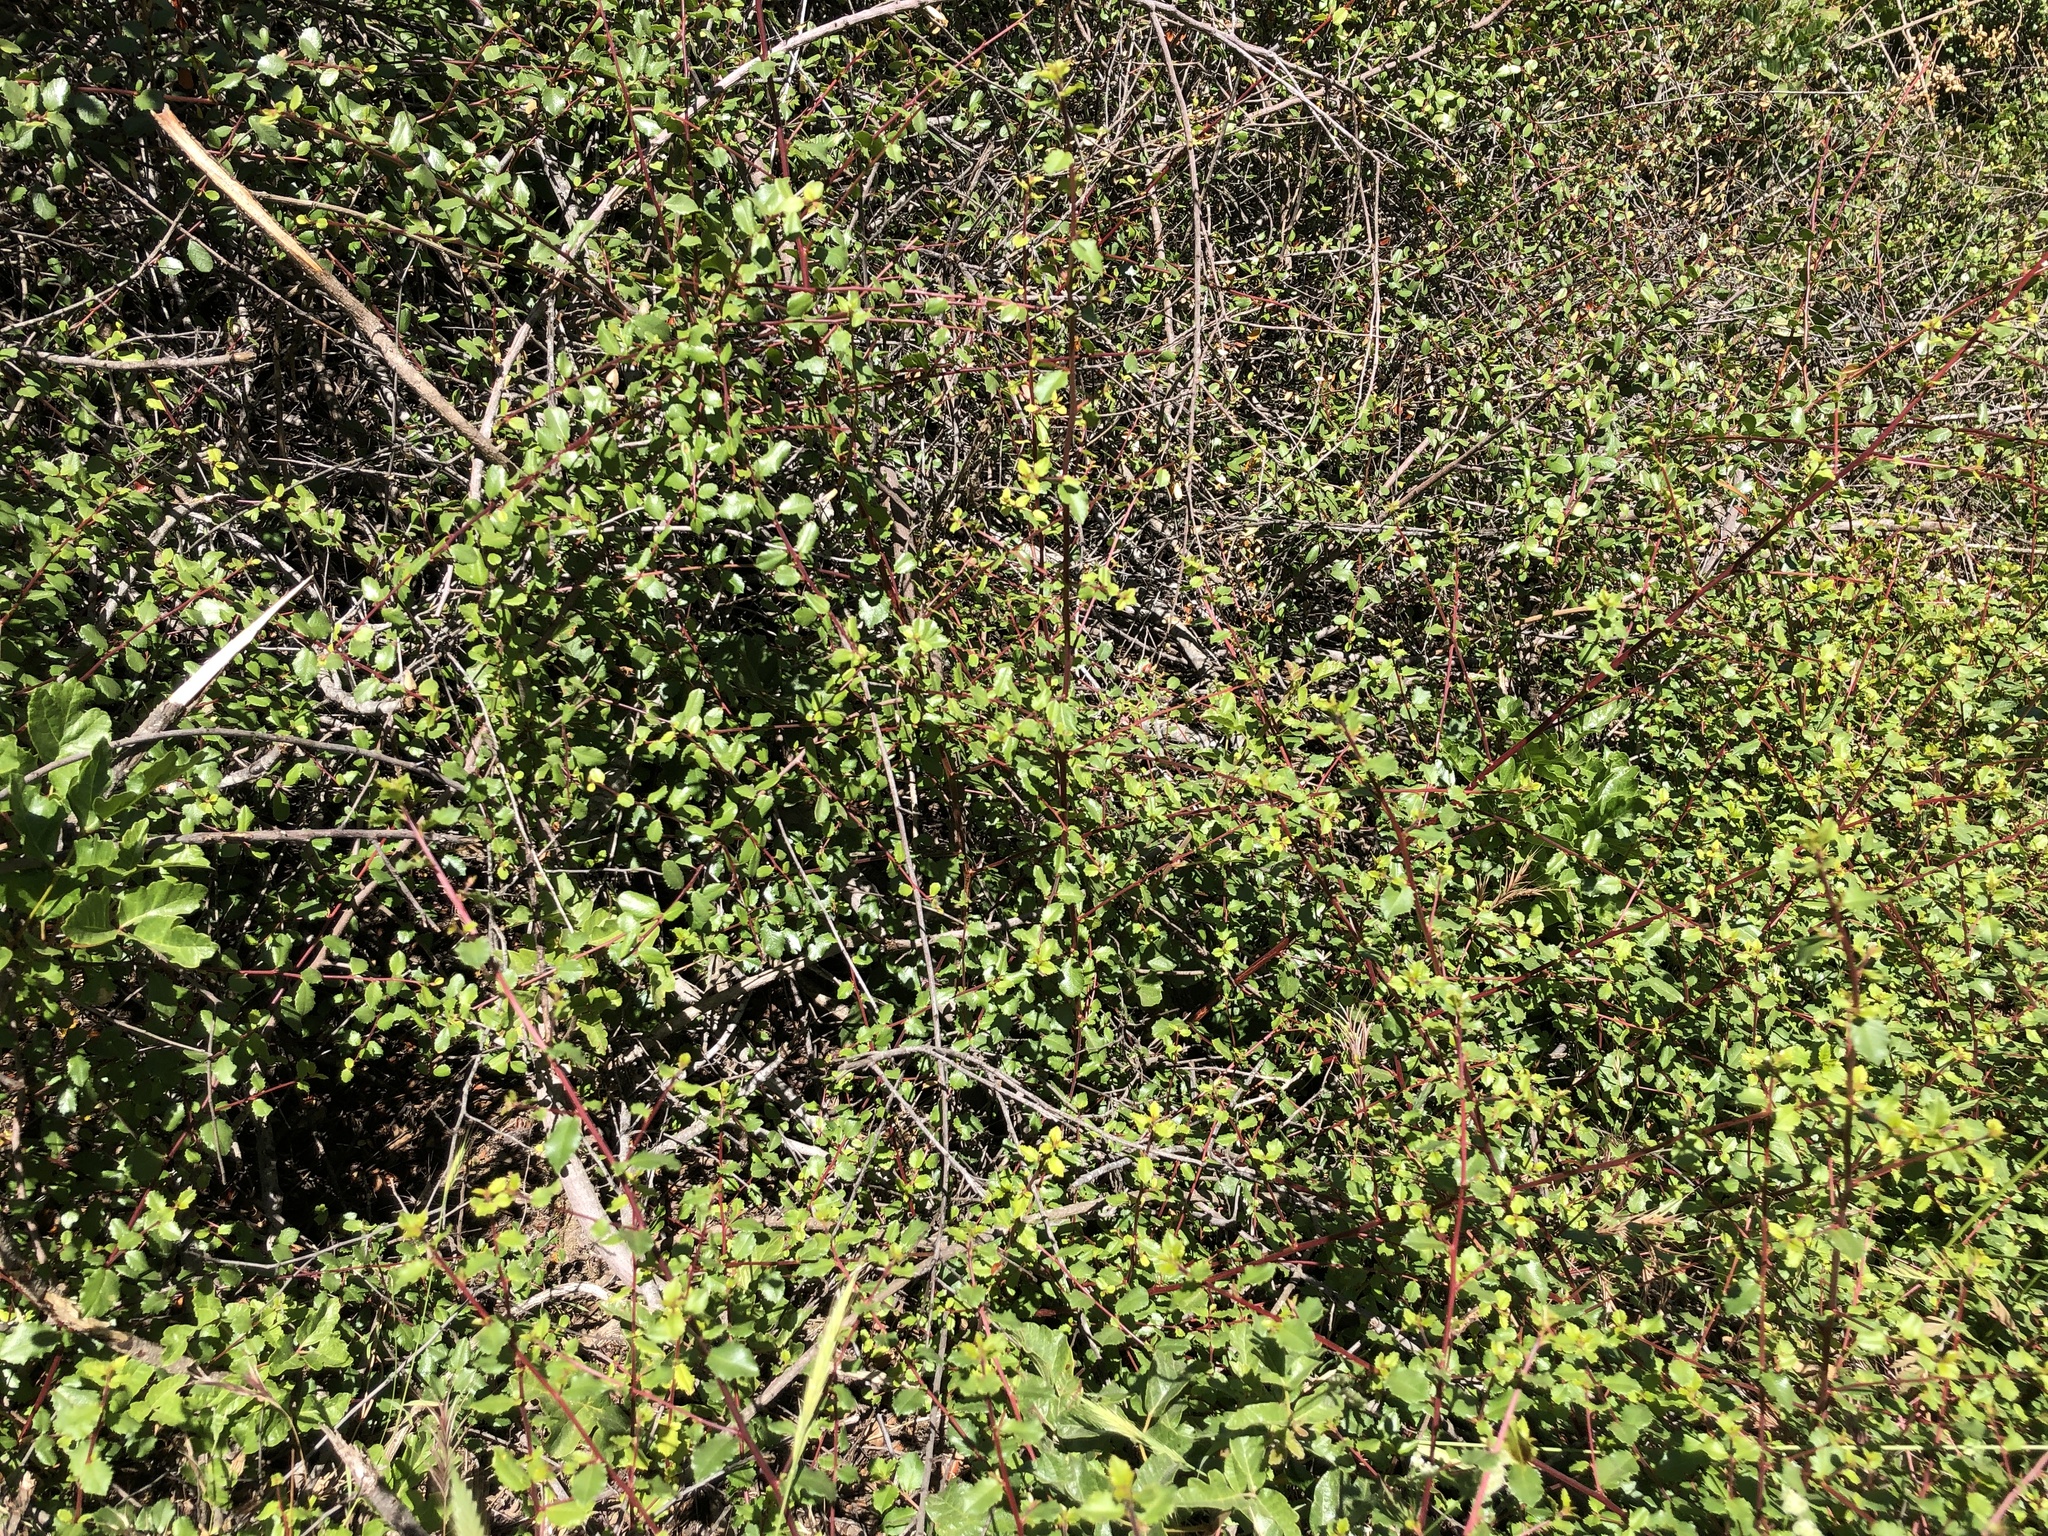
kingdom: Plantae
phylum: Tracheophyta
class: Magnoliopsida
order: Rosales
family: Rhamnaceae
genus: Endotropis
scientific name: Endotropis crocea
